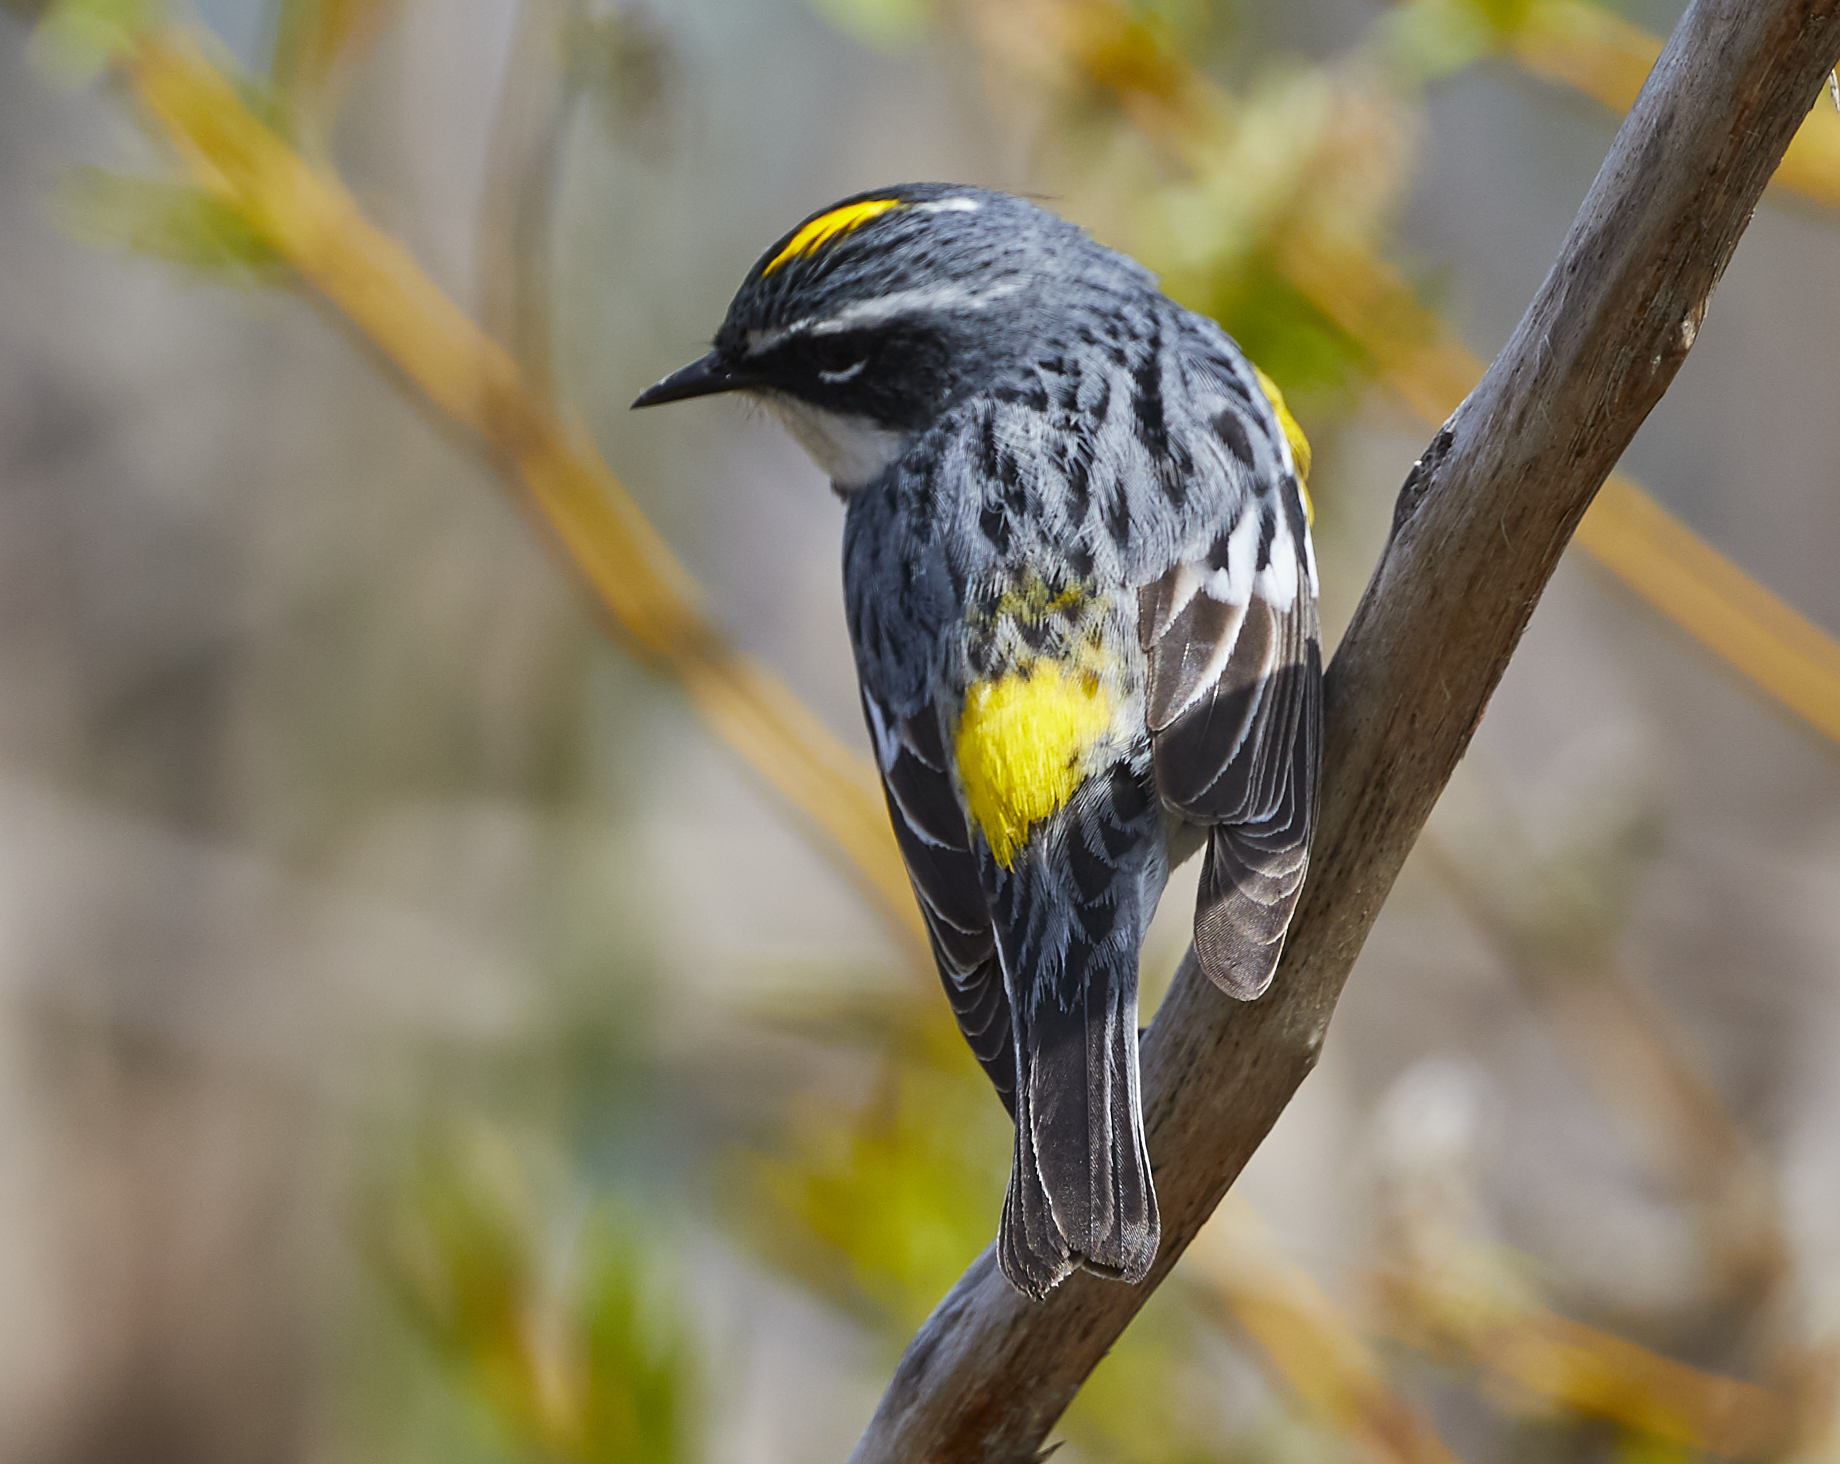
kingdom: Animalia
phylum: Chordata
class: Aves
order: Passeriformes
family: Parulidae
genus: Setophaga
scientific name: Setophaga coronata
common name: Myrtle warbler
